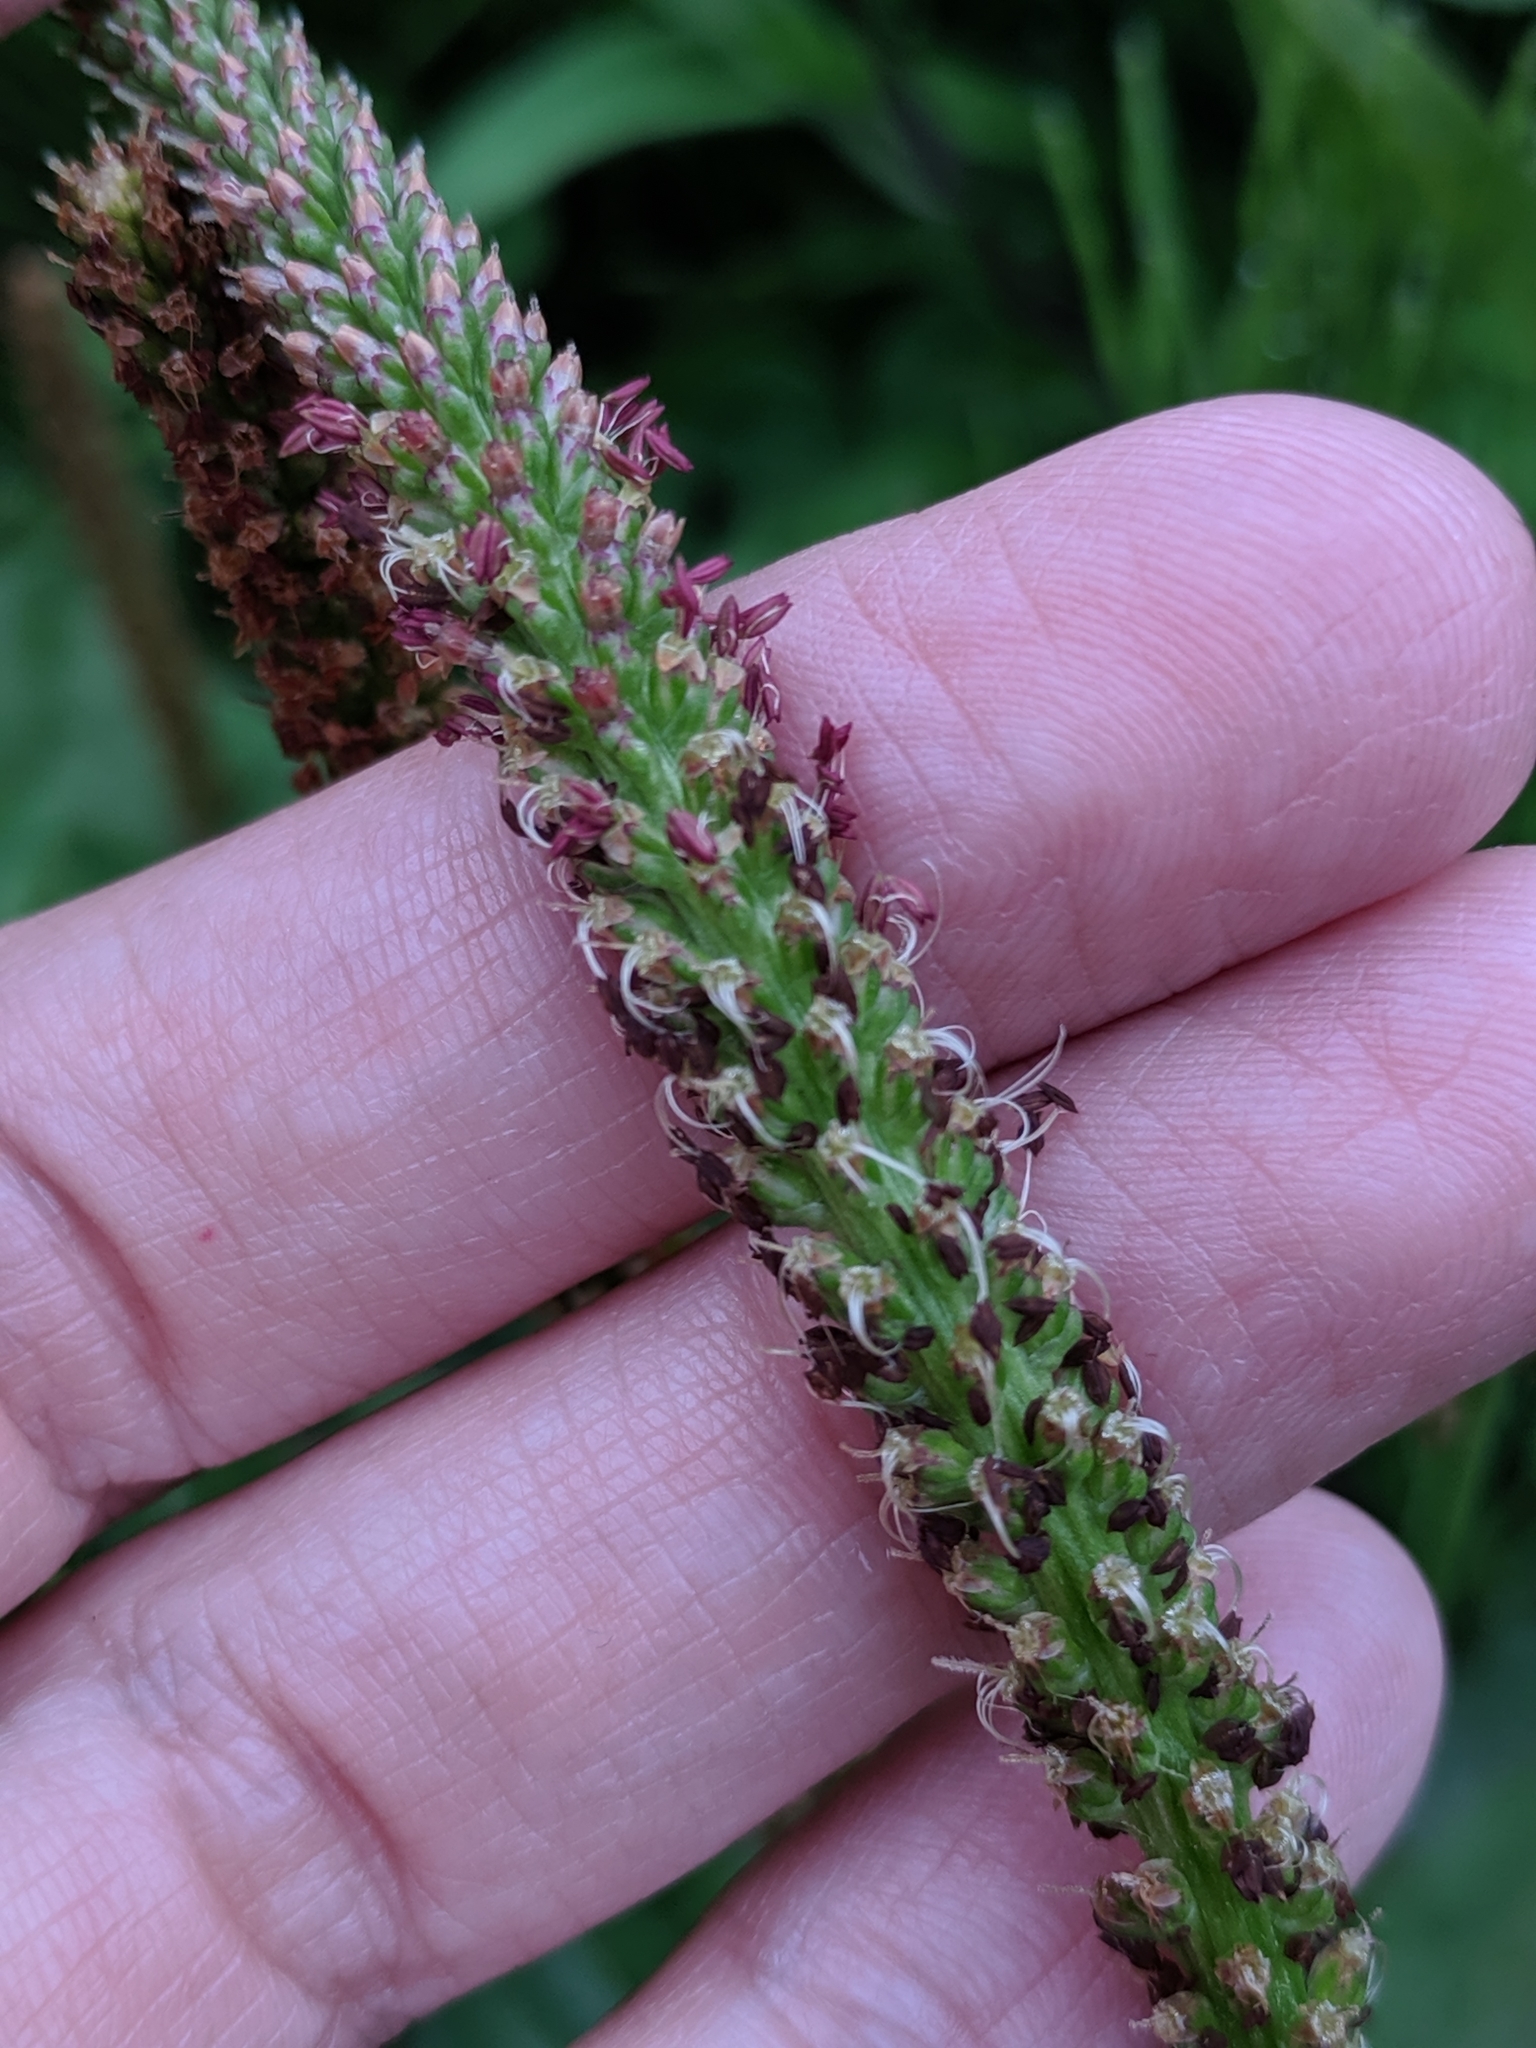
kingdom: Plantae
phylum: Tracheophyta
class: Magnoliopsida
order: Lamiales
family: Plantaginaceae
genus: Plantago
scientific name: Plantago major
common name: Common plantain
